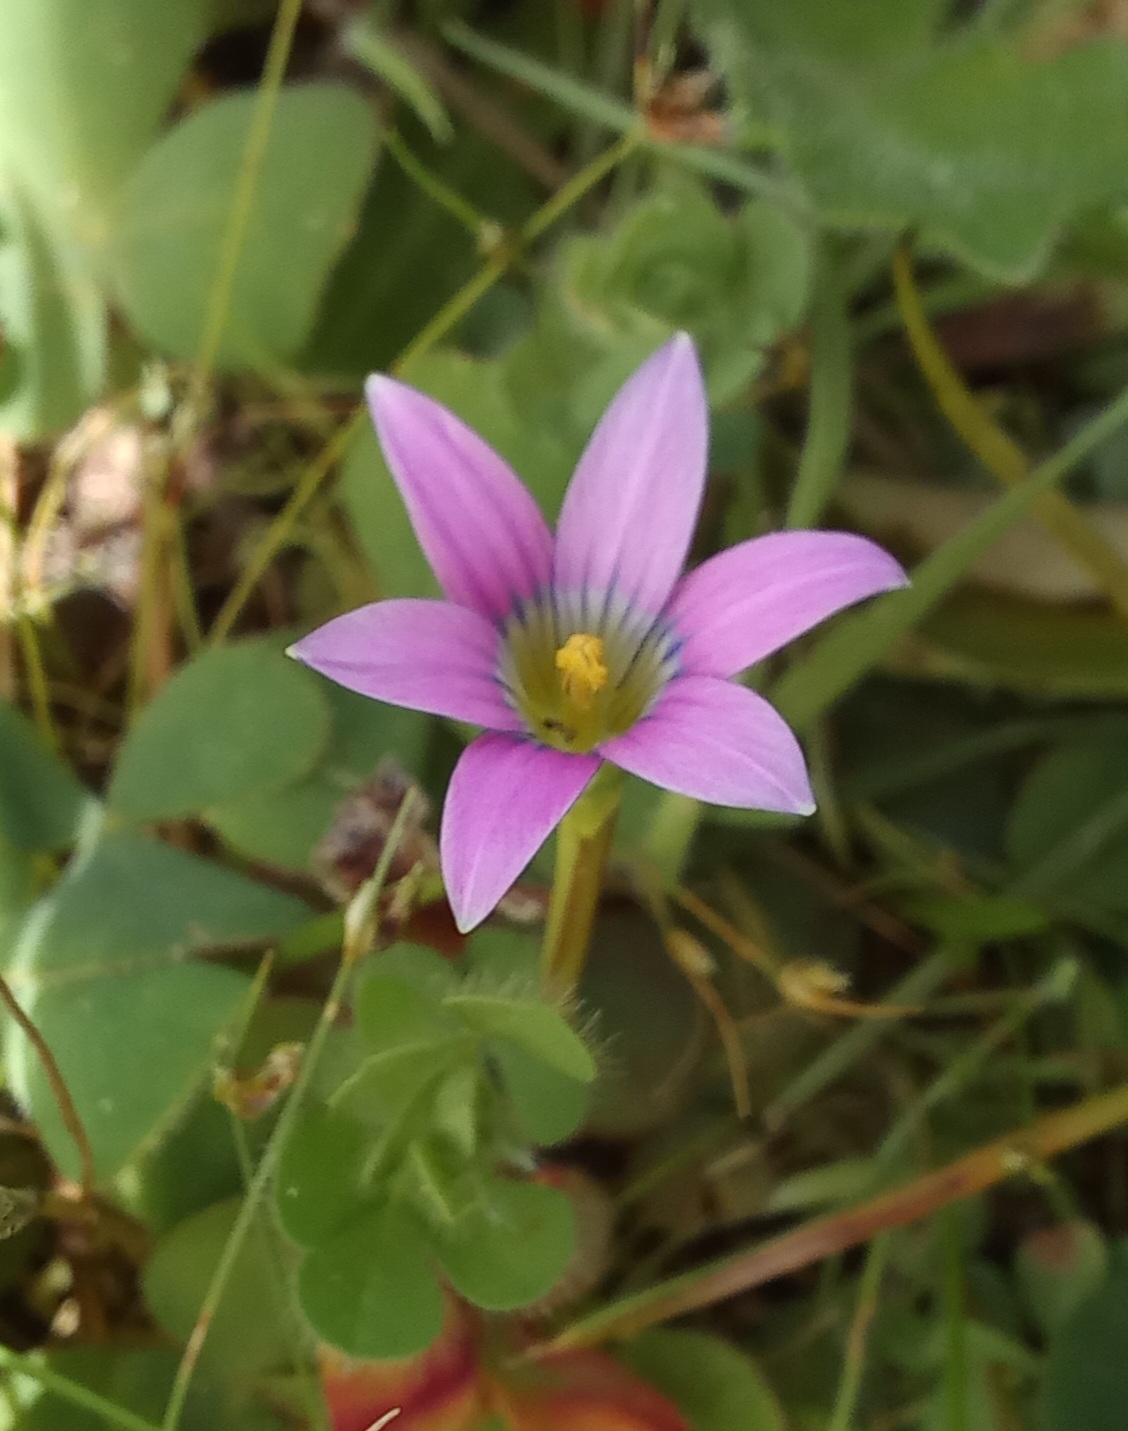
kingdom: Plantae
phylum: Tracheophyta
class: Liliopsida
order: Asparagales
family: Iridaceae
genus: Romulea
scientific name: Romulea rosea
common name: Oniongrass
